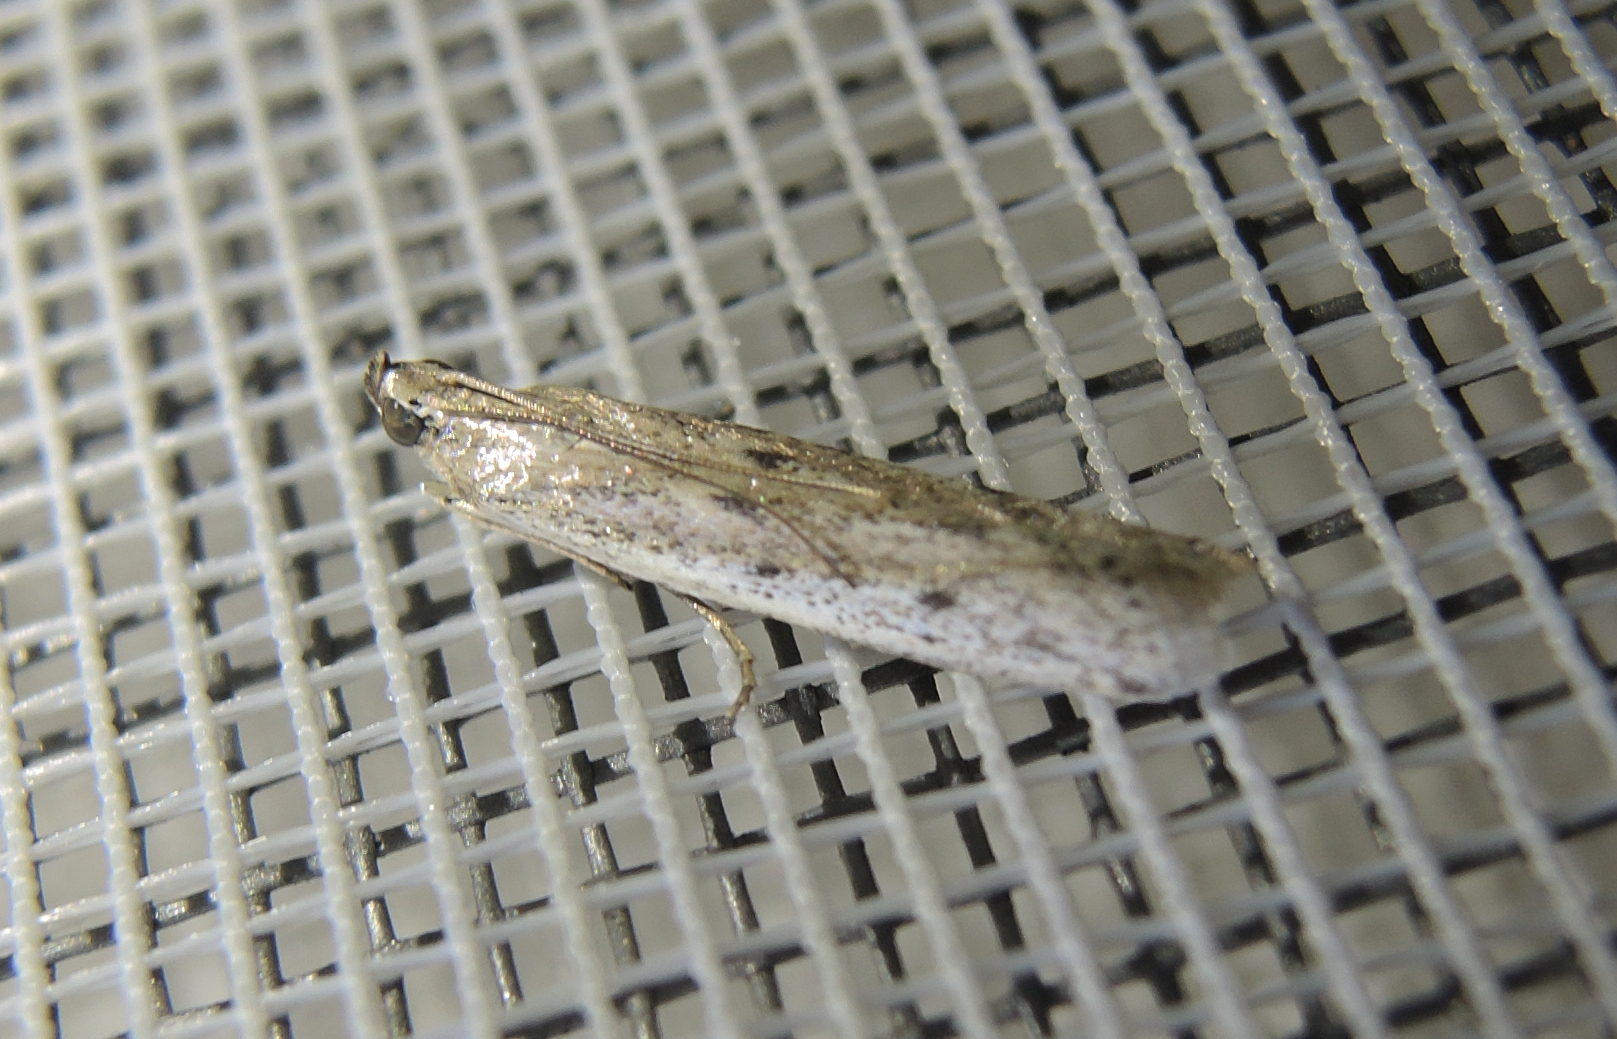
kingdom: Animalia
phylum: Arthropoda
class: Insecta
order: Lepidoptera
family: Pyralidae
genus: Homoeosoma
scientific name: Homoeosoma
